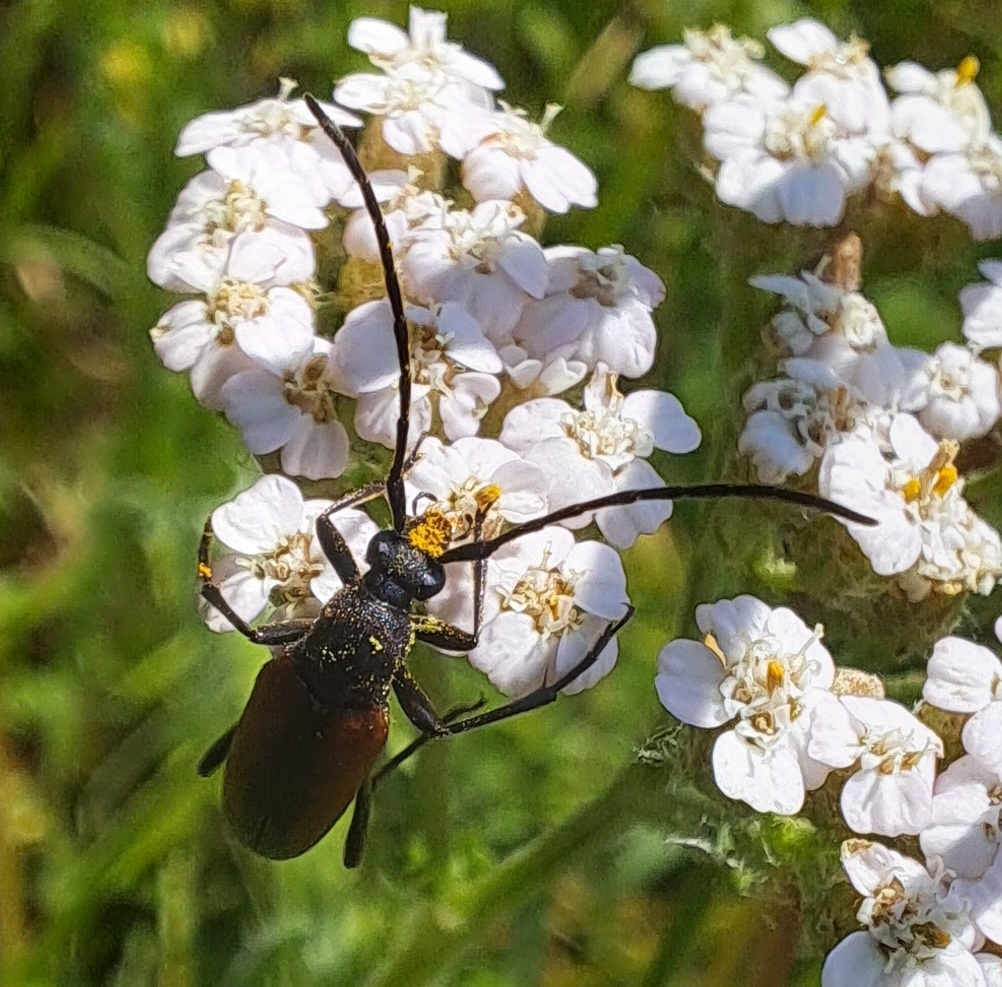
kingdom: Animalia
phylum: Arthropoda
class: Insecta
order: Coleoptera
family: Cerambycidae
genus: Stenurella
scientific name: Stenurella melanura
